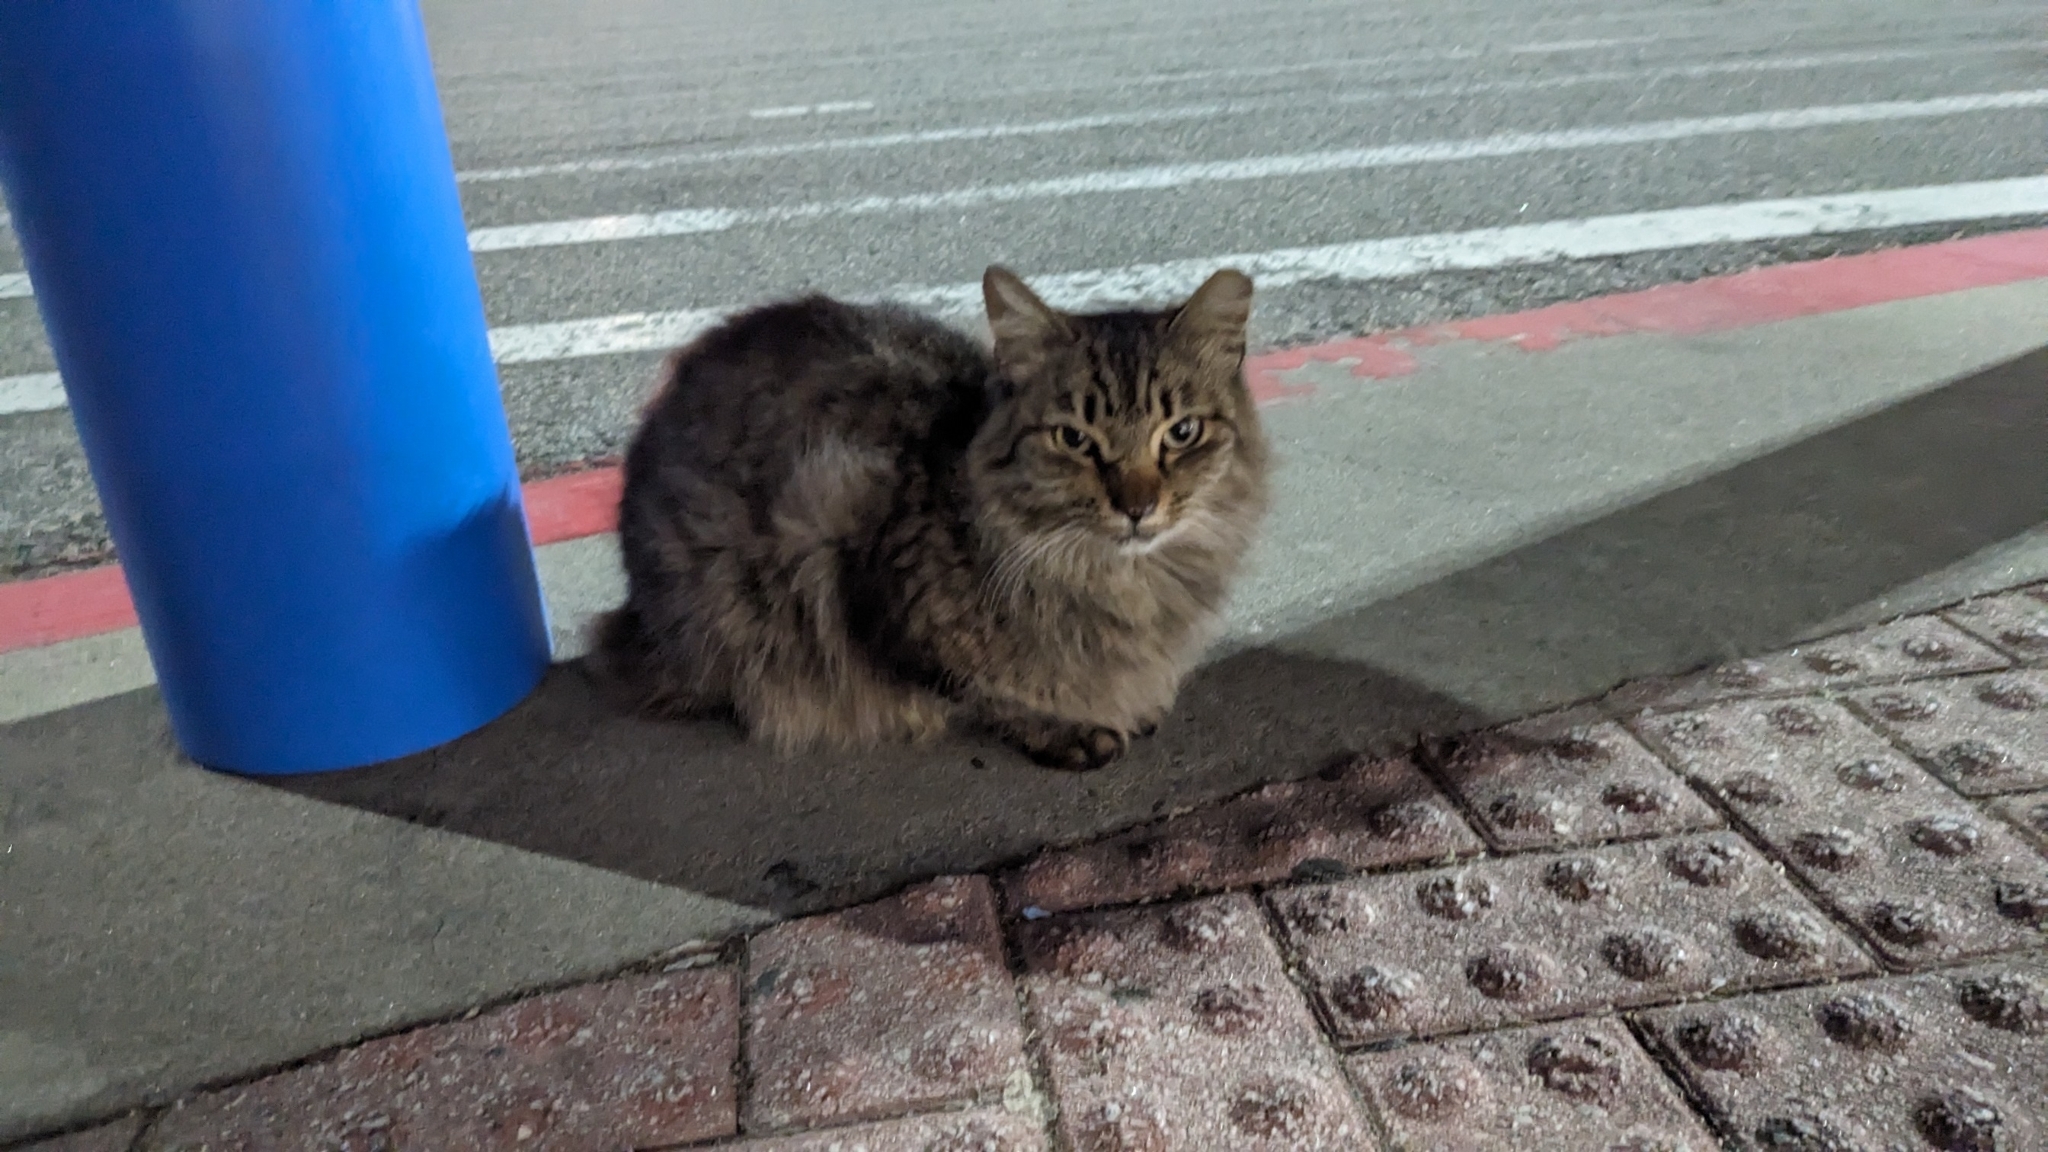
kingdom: Animalia
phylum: Chordata
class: Mammalia
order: Carnivora
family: Felidae
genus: Felis
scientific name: Felis catus
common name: Domestic cat
